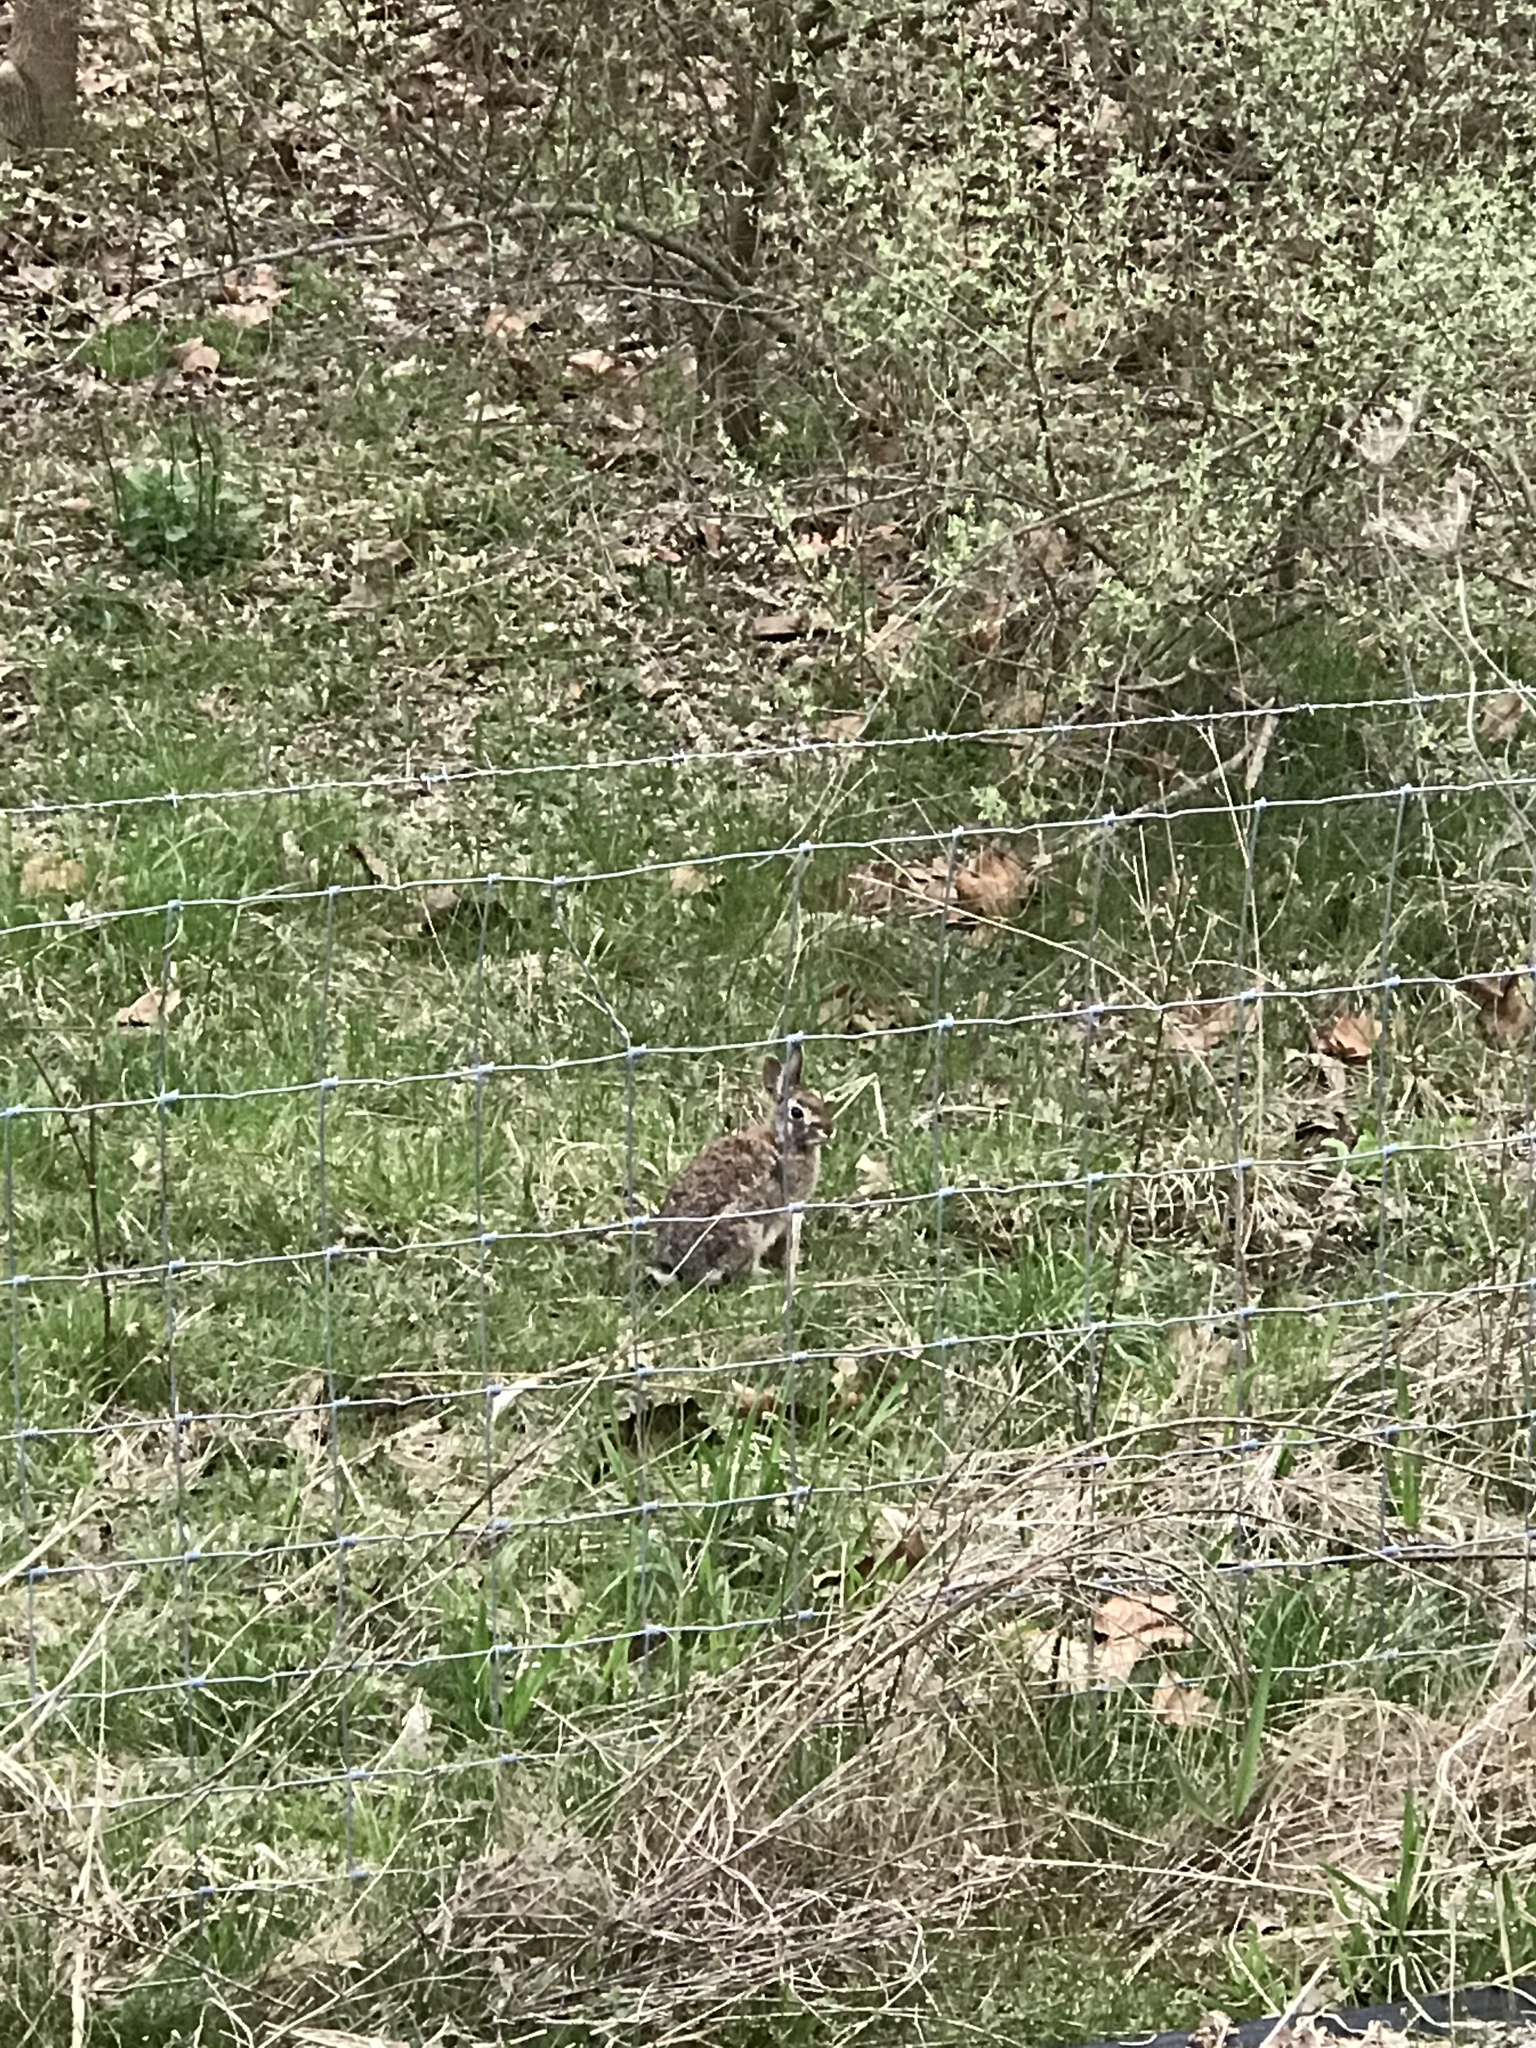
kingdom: Animalia
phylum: Chordata
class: Mammalia
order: Lagomorpha
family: Leporidae
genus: Sylvilagus
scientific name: Sylvilagus floridanus
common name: Eastern cottontail
